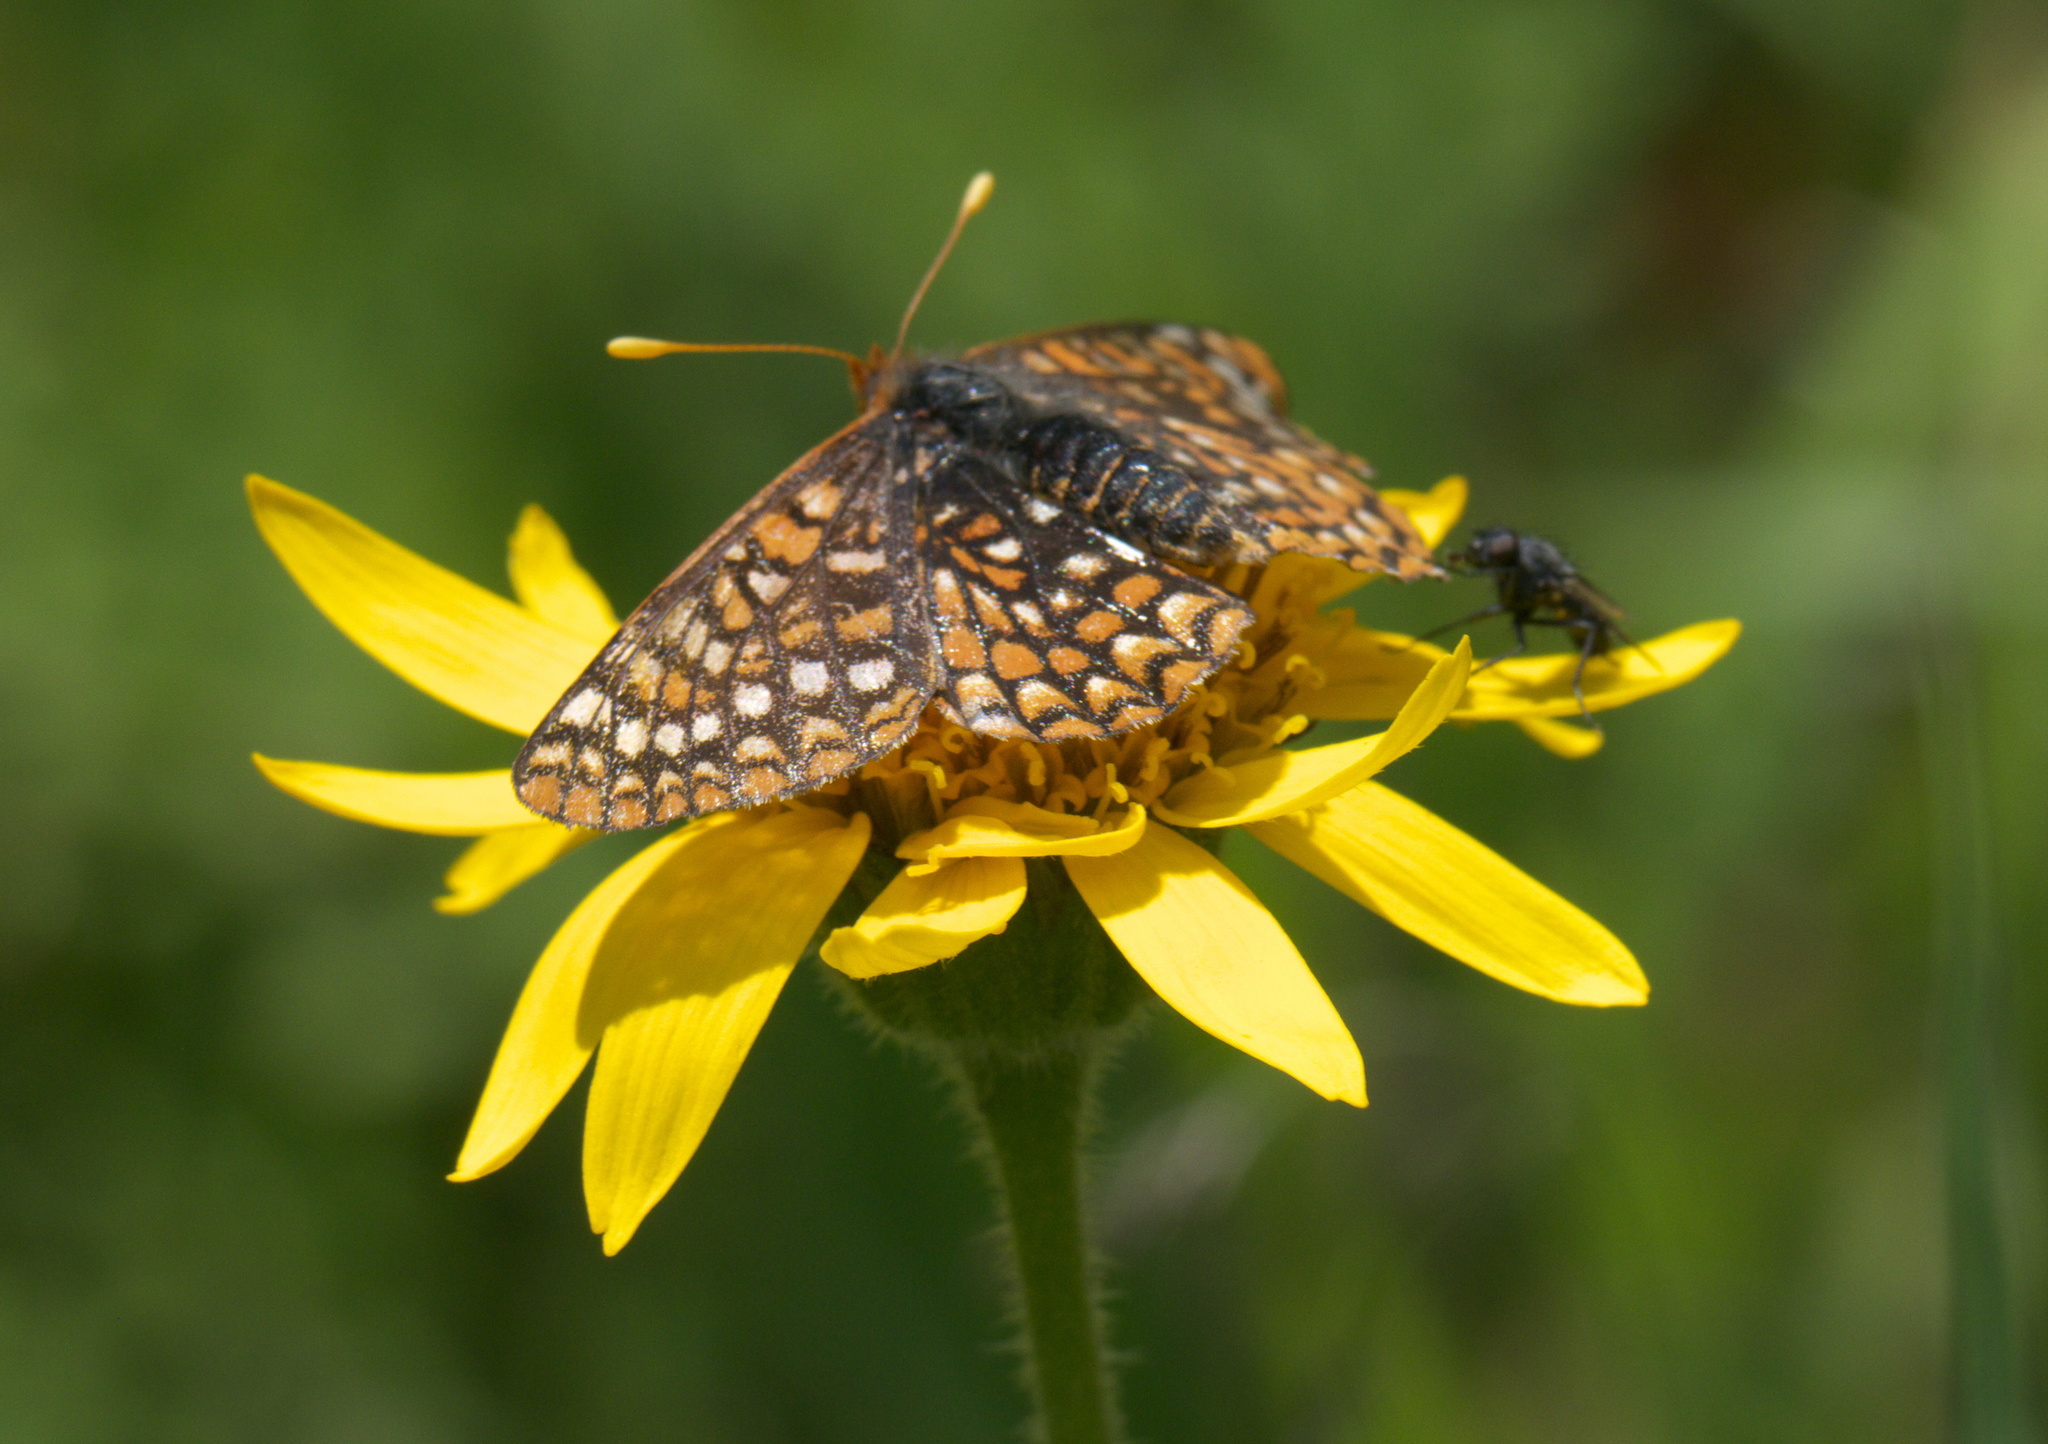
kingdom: Animalia
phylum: Arthropoda
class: Insecta
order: Lepidoptera
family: Nymphalidae
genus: Occidryas
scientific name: Occidryas anicia
